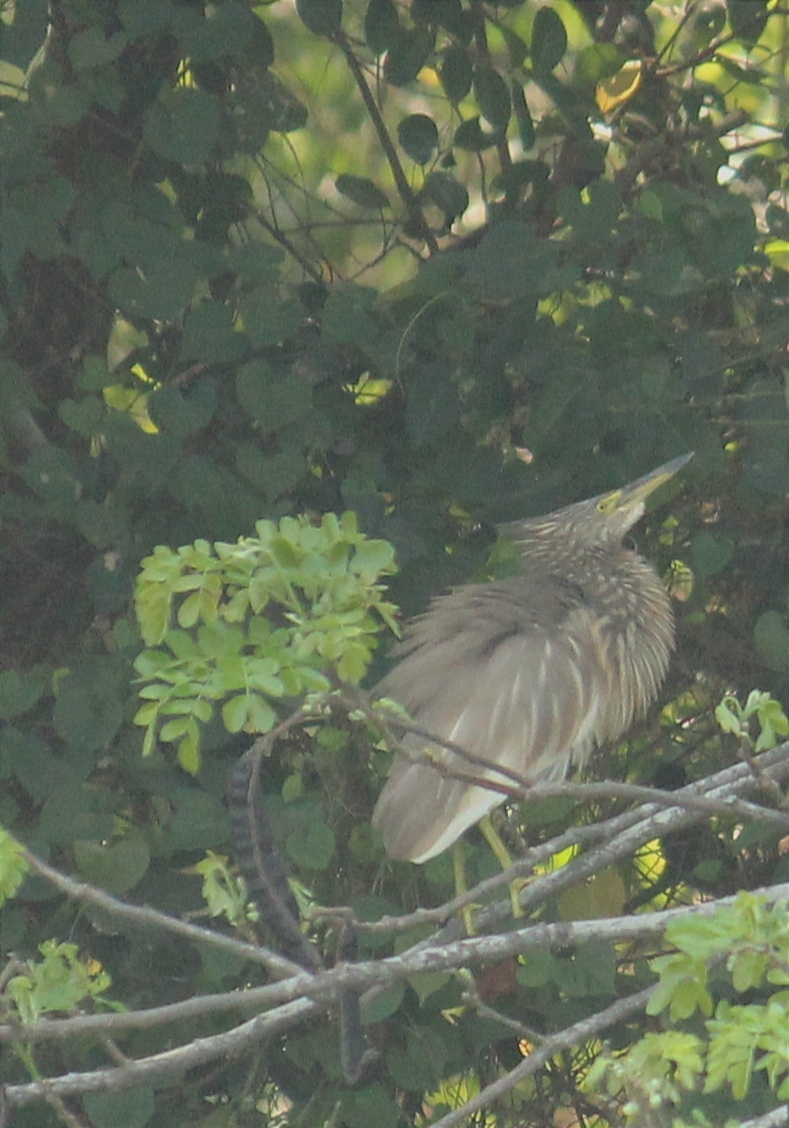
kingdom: Animalia
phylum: Chordata
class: Aves
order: Pelecaniformes
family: Ardeidae
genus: Ardeola
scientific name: Ardeola grayii
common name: Indian pond heron
